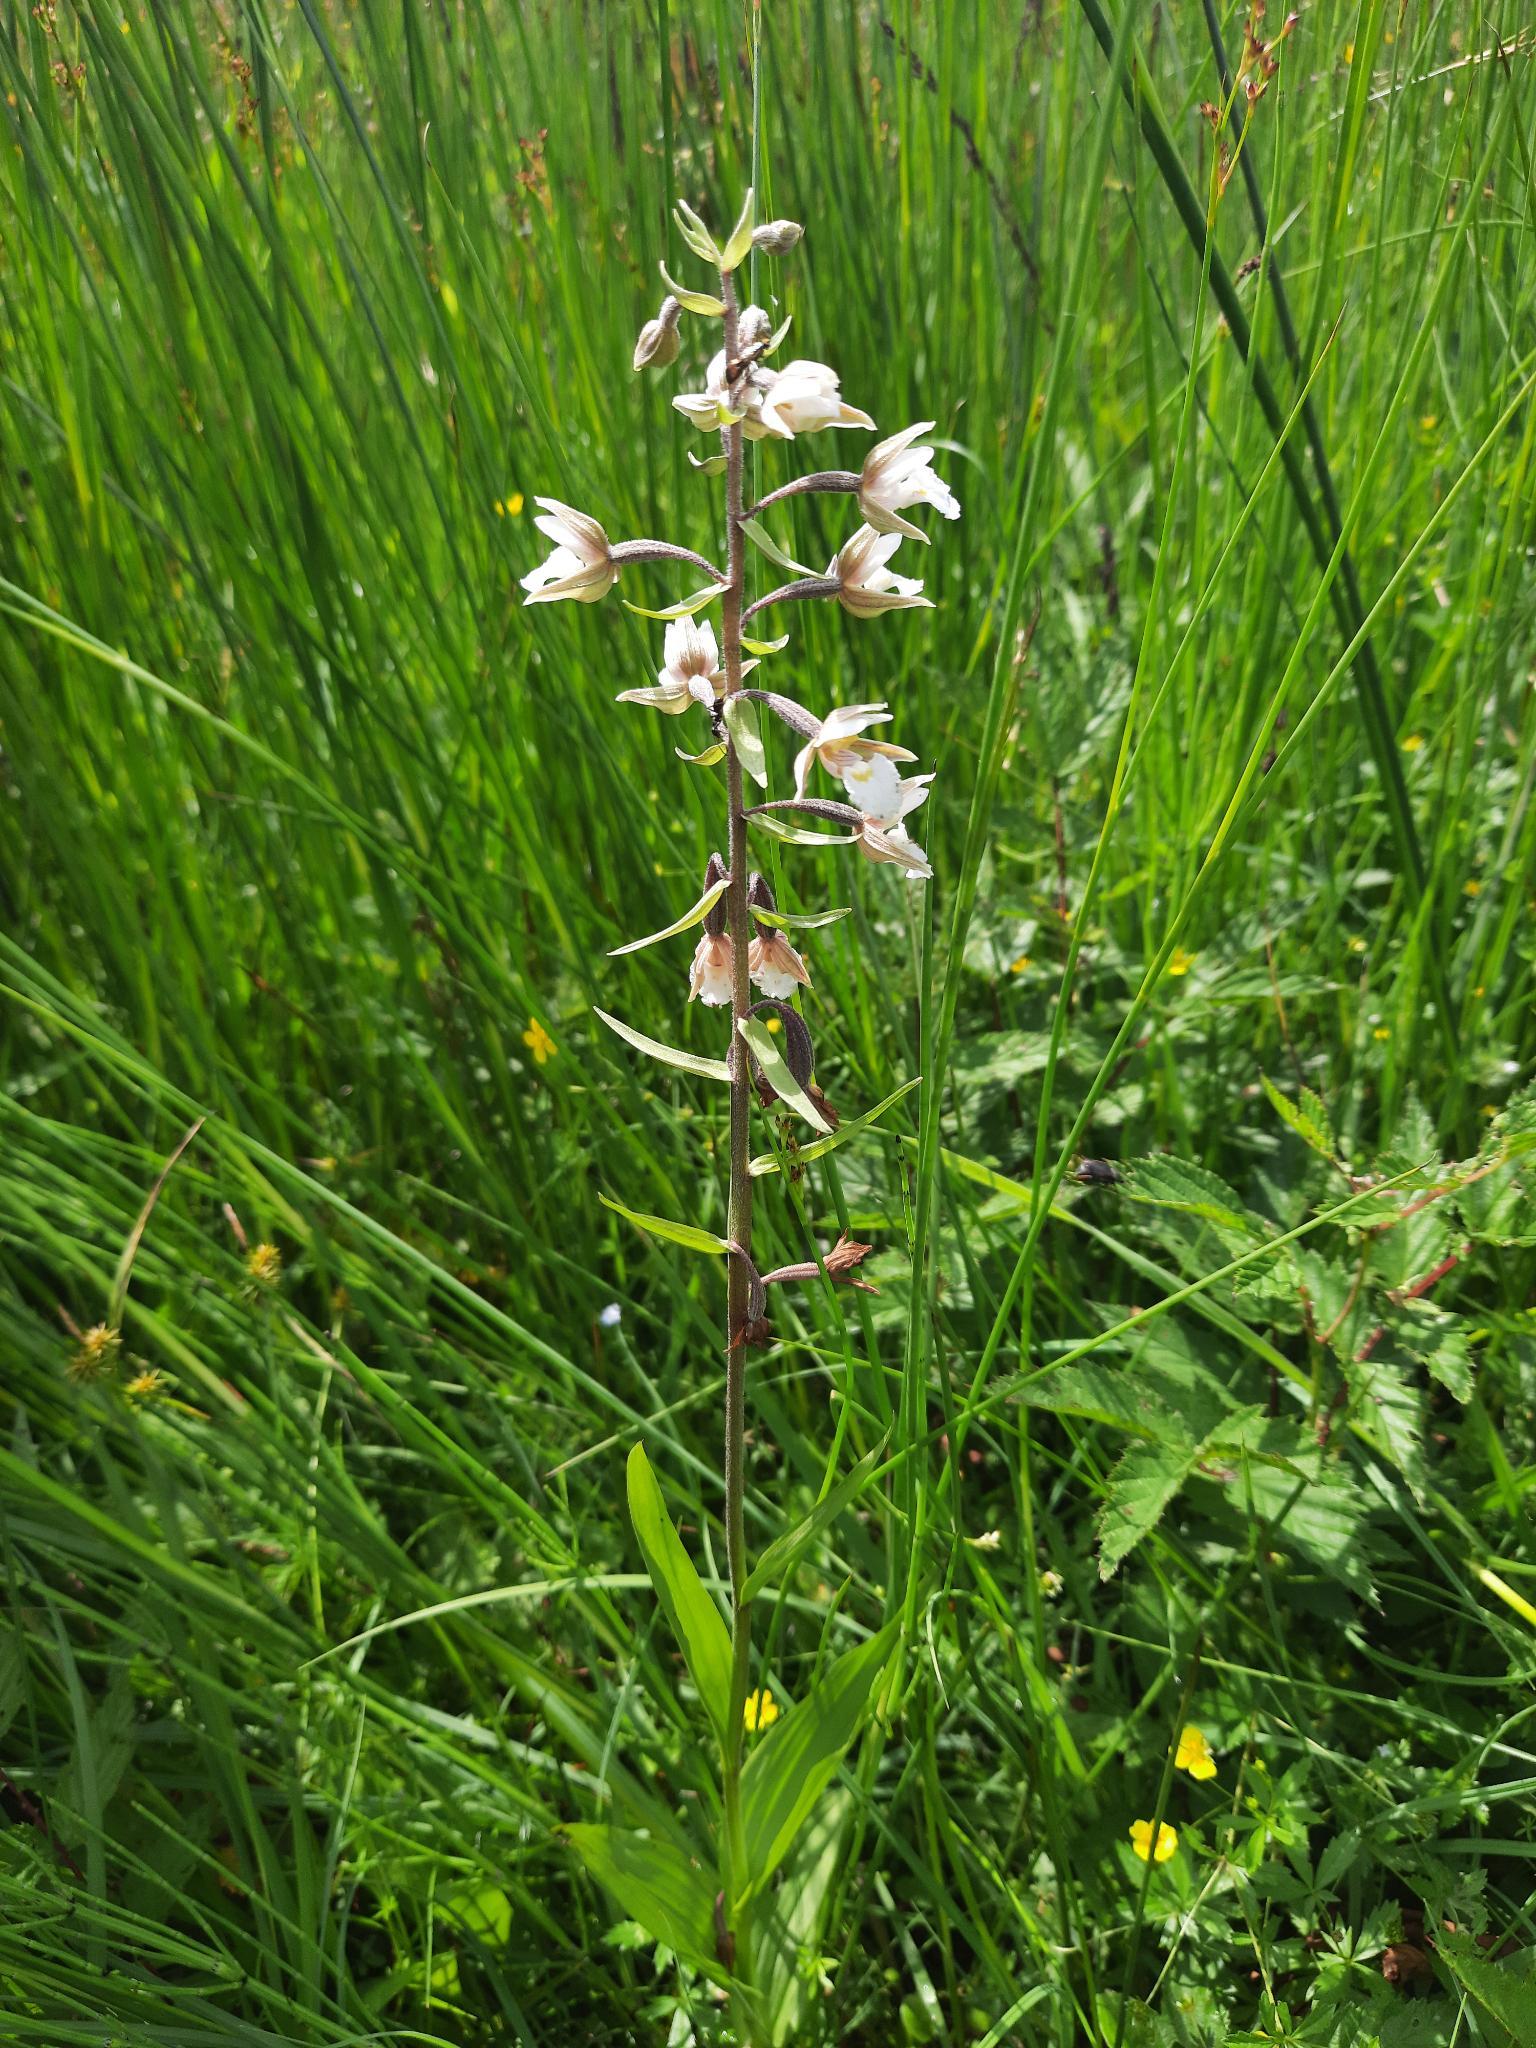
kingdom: Plantae
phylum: Tracheophyta
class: Liliopsida
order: Asparagales
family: Orchidaceae
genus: Epipactis
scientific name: Epipactis palustris
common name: Marsh helleborine
